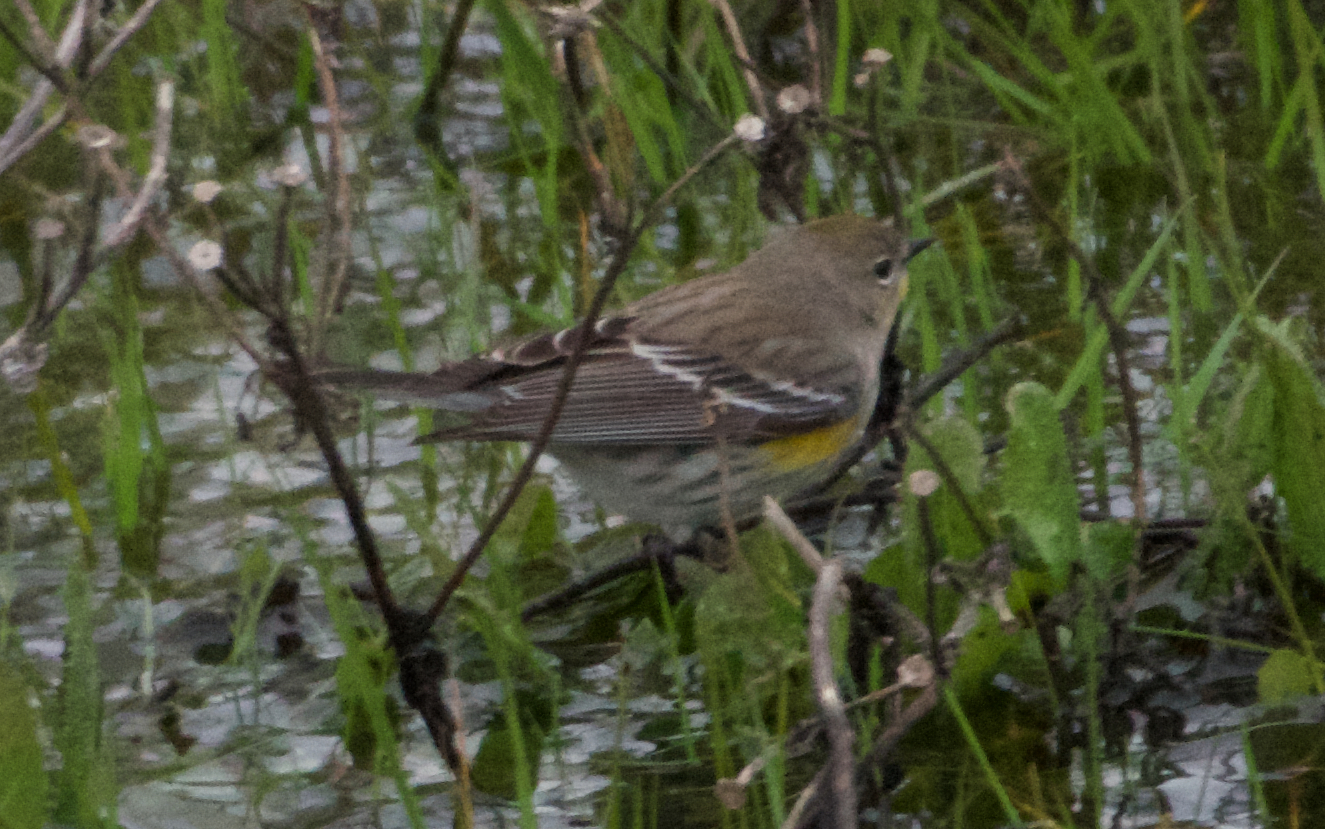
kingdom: Animalia
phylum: Chordata
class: Aves
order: Passeriformes
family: Parulidae
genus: Setophaga
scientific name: Setophaga coronata
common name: Myrtle warbler
